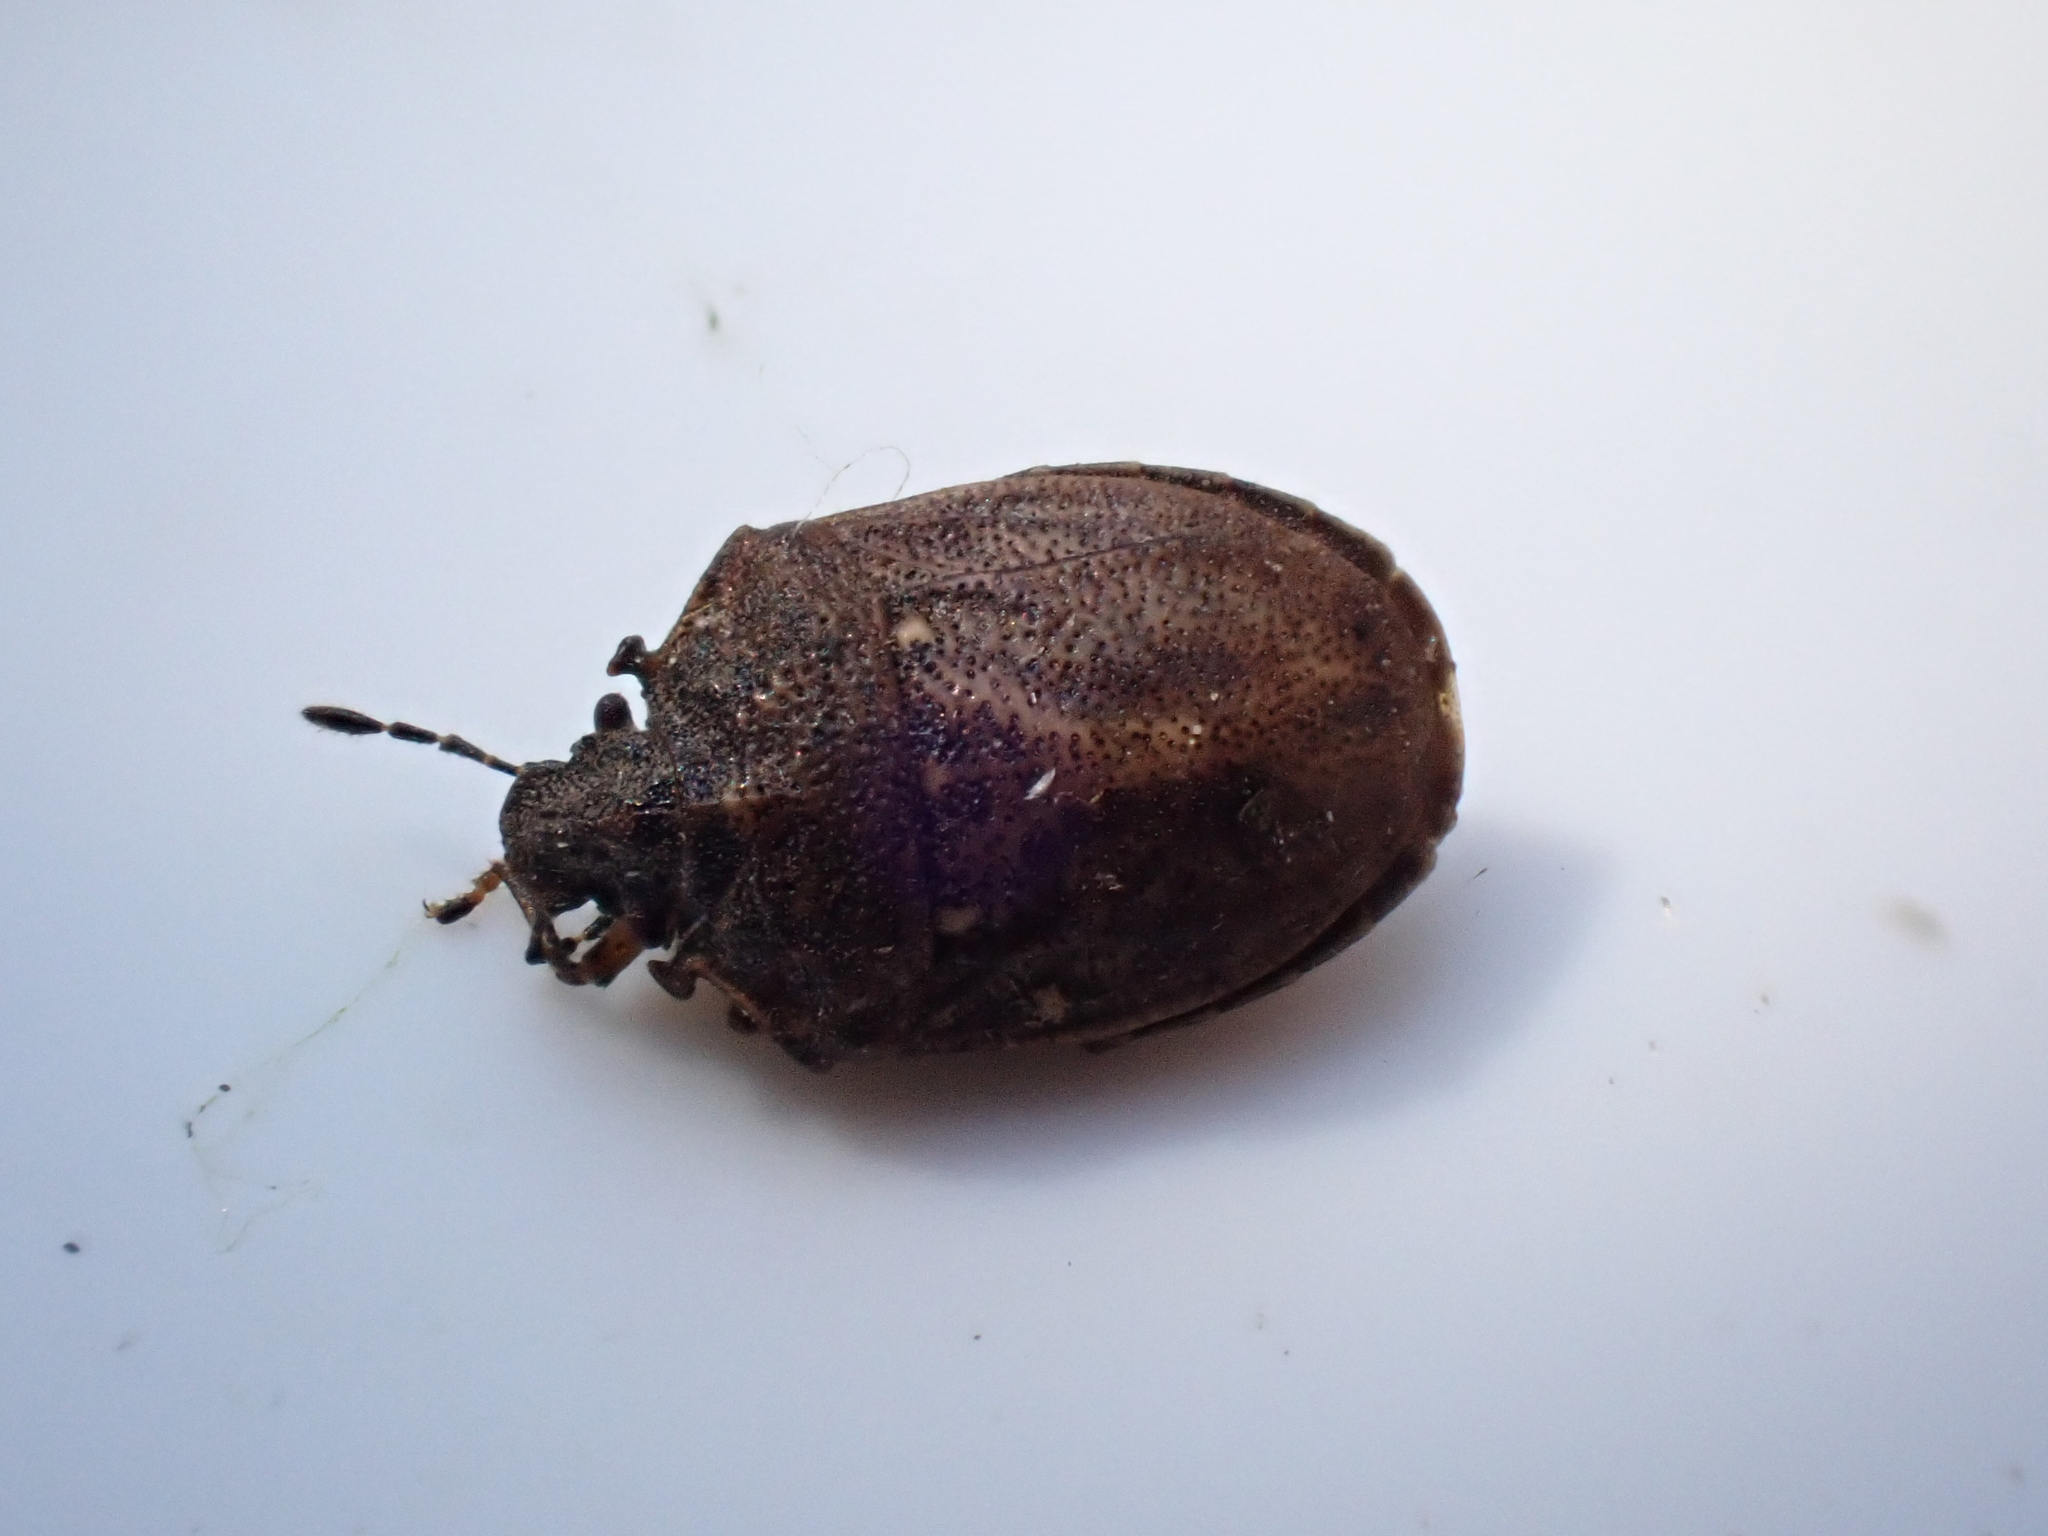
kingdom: Animalia
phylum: Arthropoda
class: Insecta
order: Hemiptera
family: Pentatomidae
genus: Podops
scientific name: Podops inunctus
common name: Turtle bug
